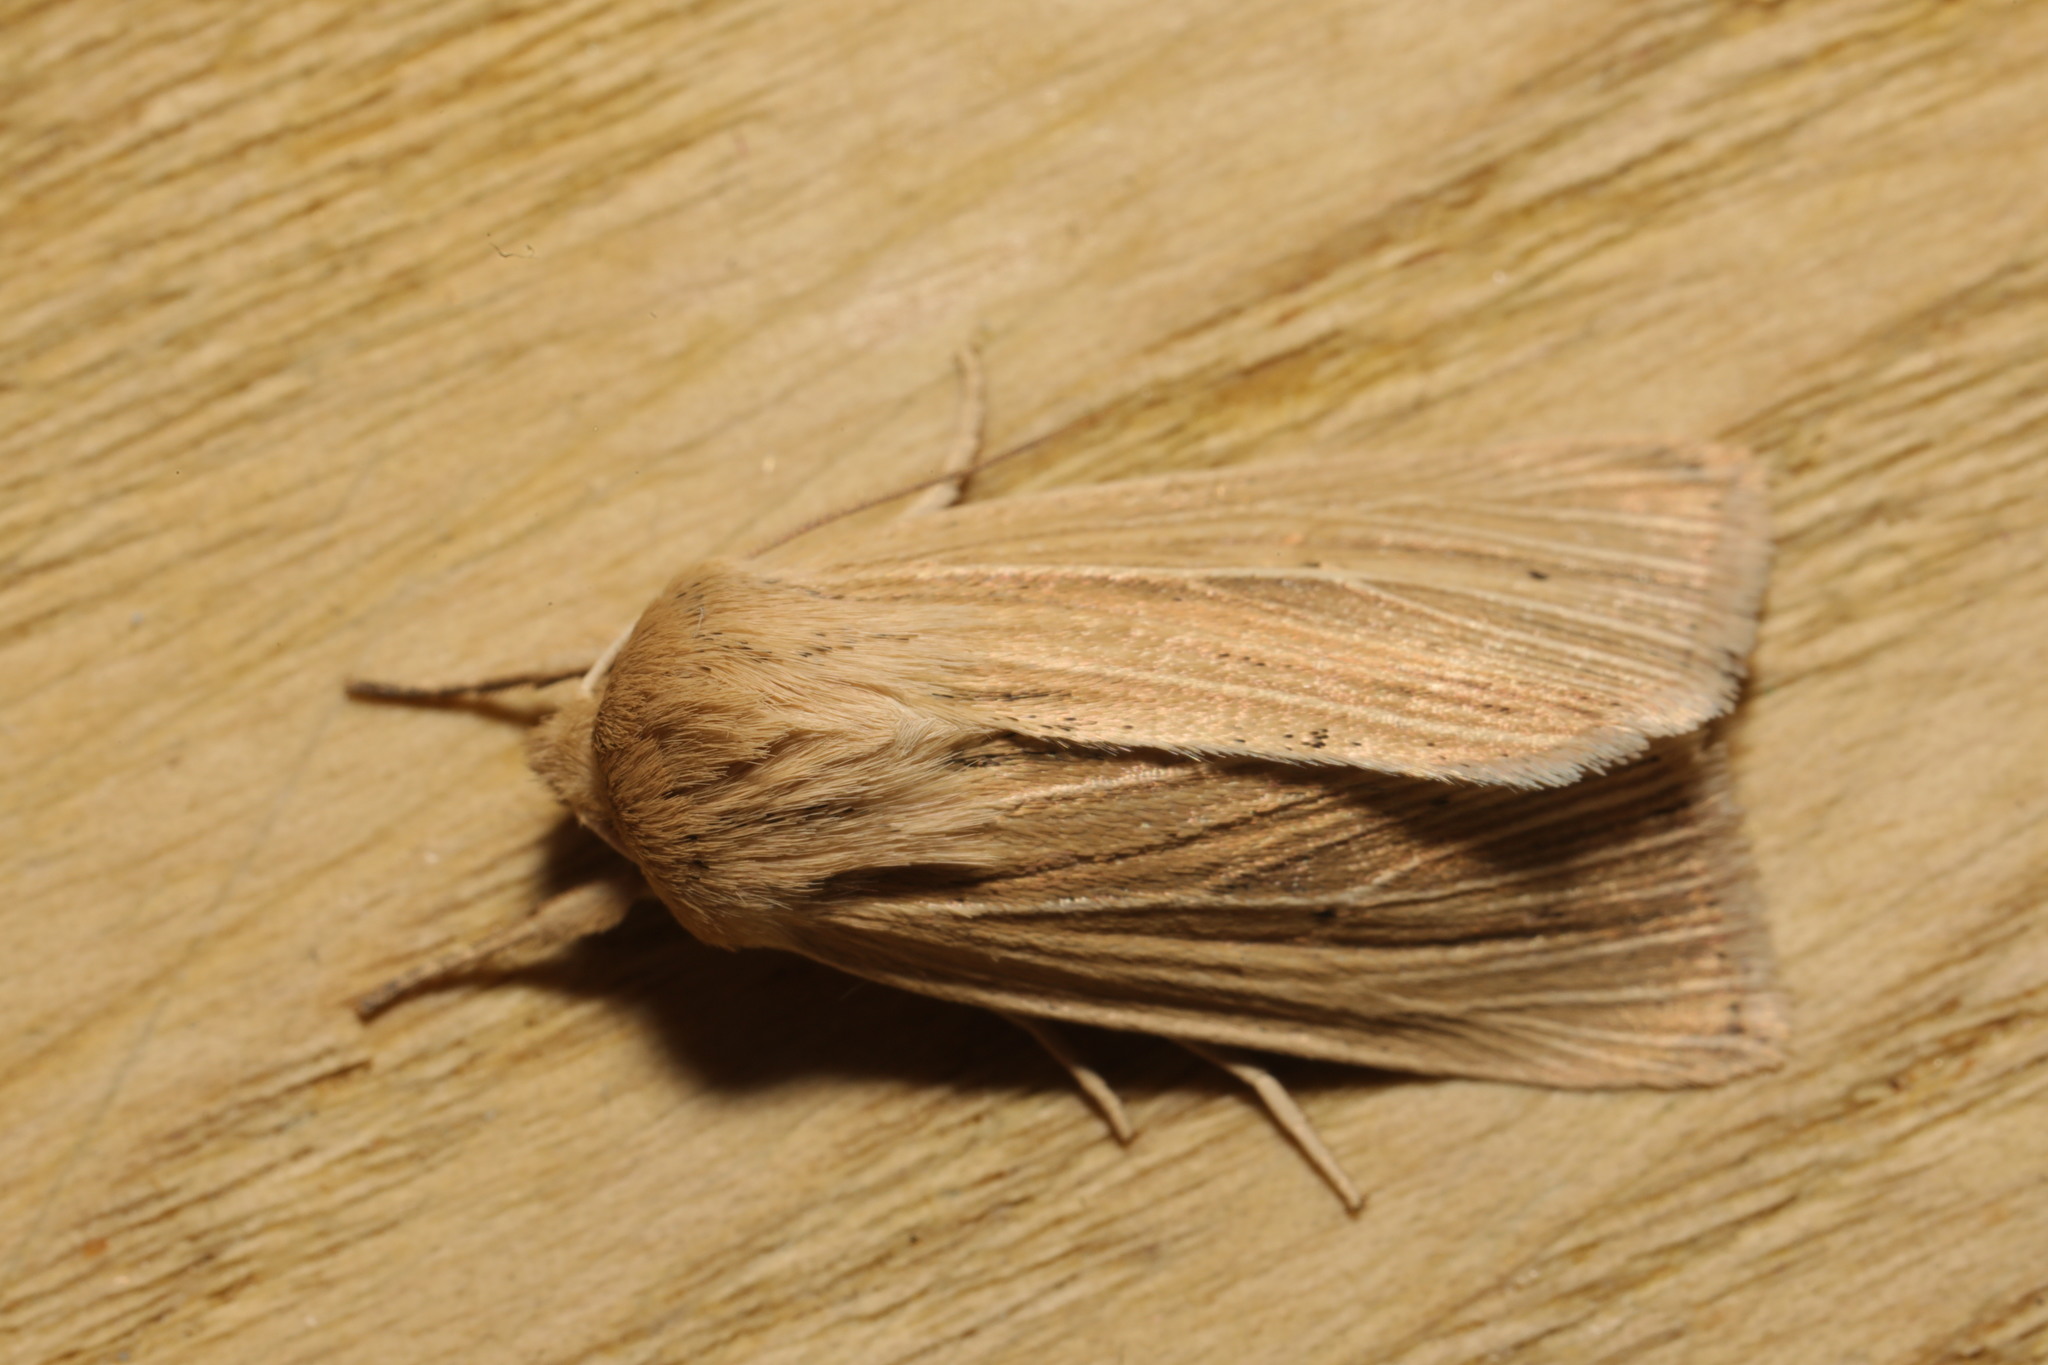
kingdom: Animalia
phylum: Arthropoda
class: Insecta
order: Lepidoptera
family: Noctuidae
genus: Mythimna
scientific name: Mythimna pallens
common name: Common wainscot
